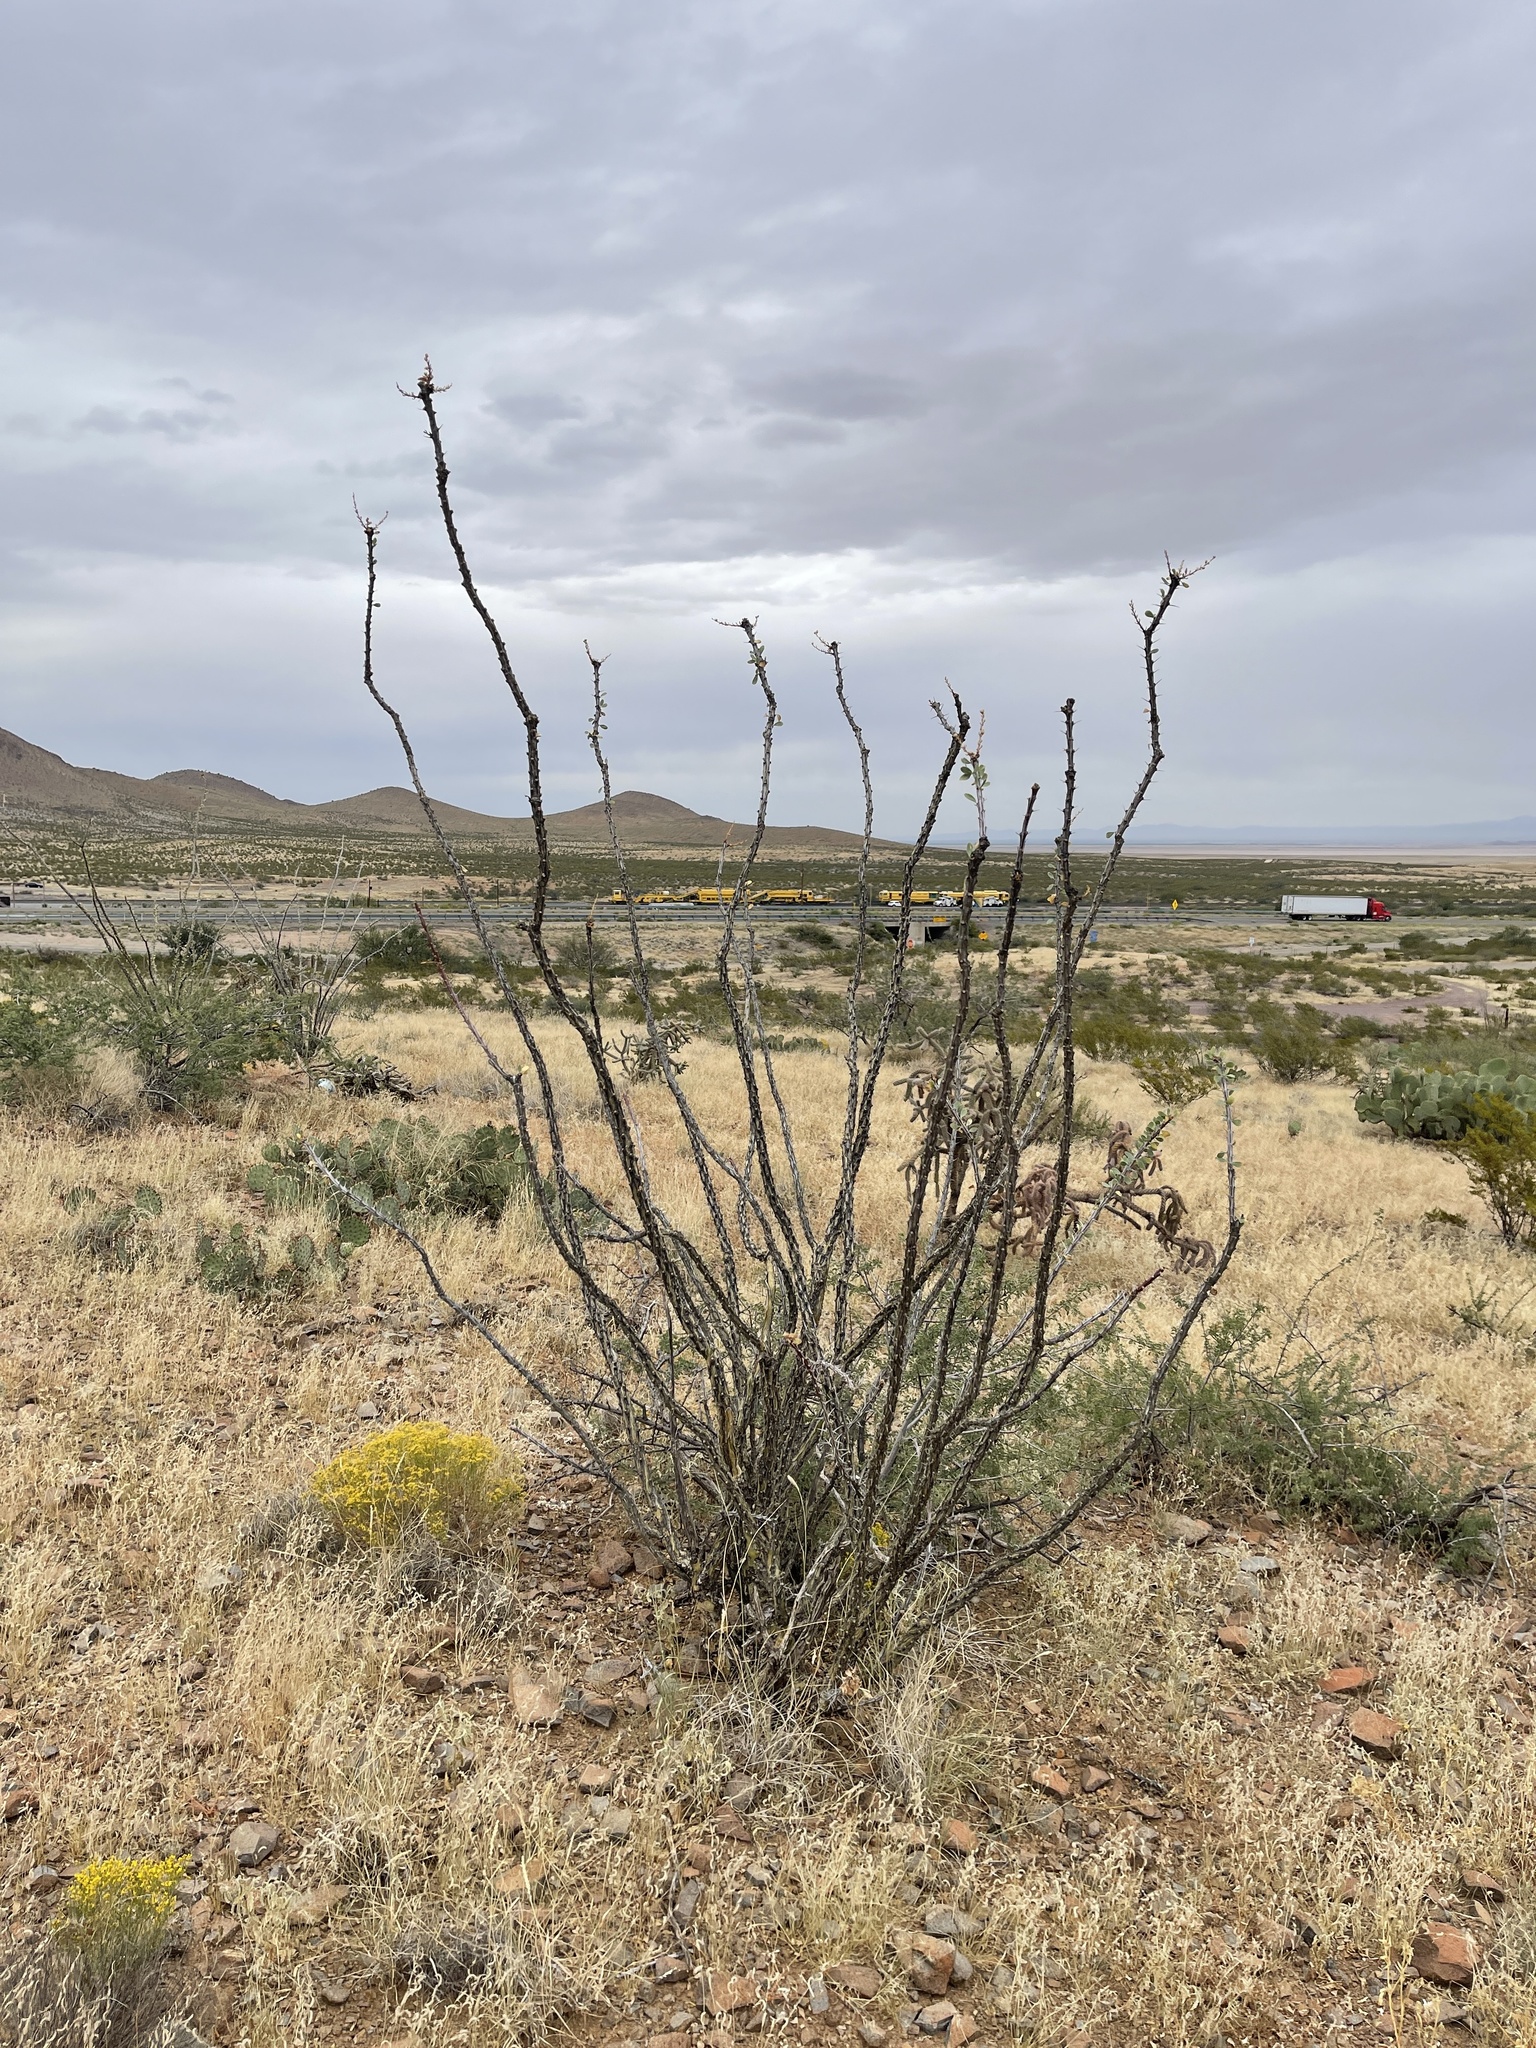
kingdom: Plantae
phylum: Tracheophyta
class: Magnoliopsida
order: Ericales
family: Fouquieriaceae
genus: Fouquieria
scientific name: Fouquieria splendens
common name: Vine-cactus
